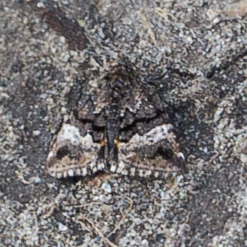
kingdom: Animalia
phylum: Arthropoda
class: Insecta
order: Lepidoptera
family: Noctuidae
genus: Annaphila
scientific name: Annaphila decia
